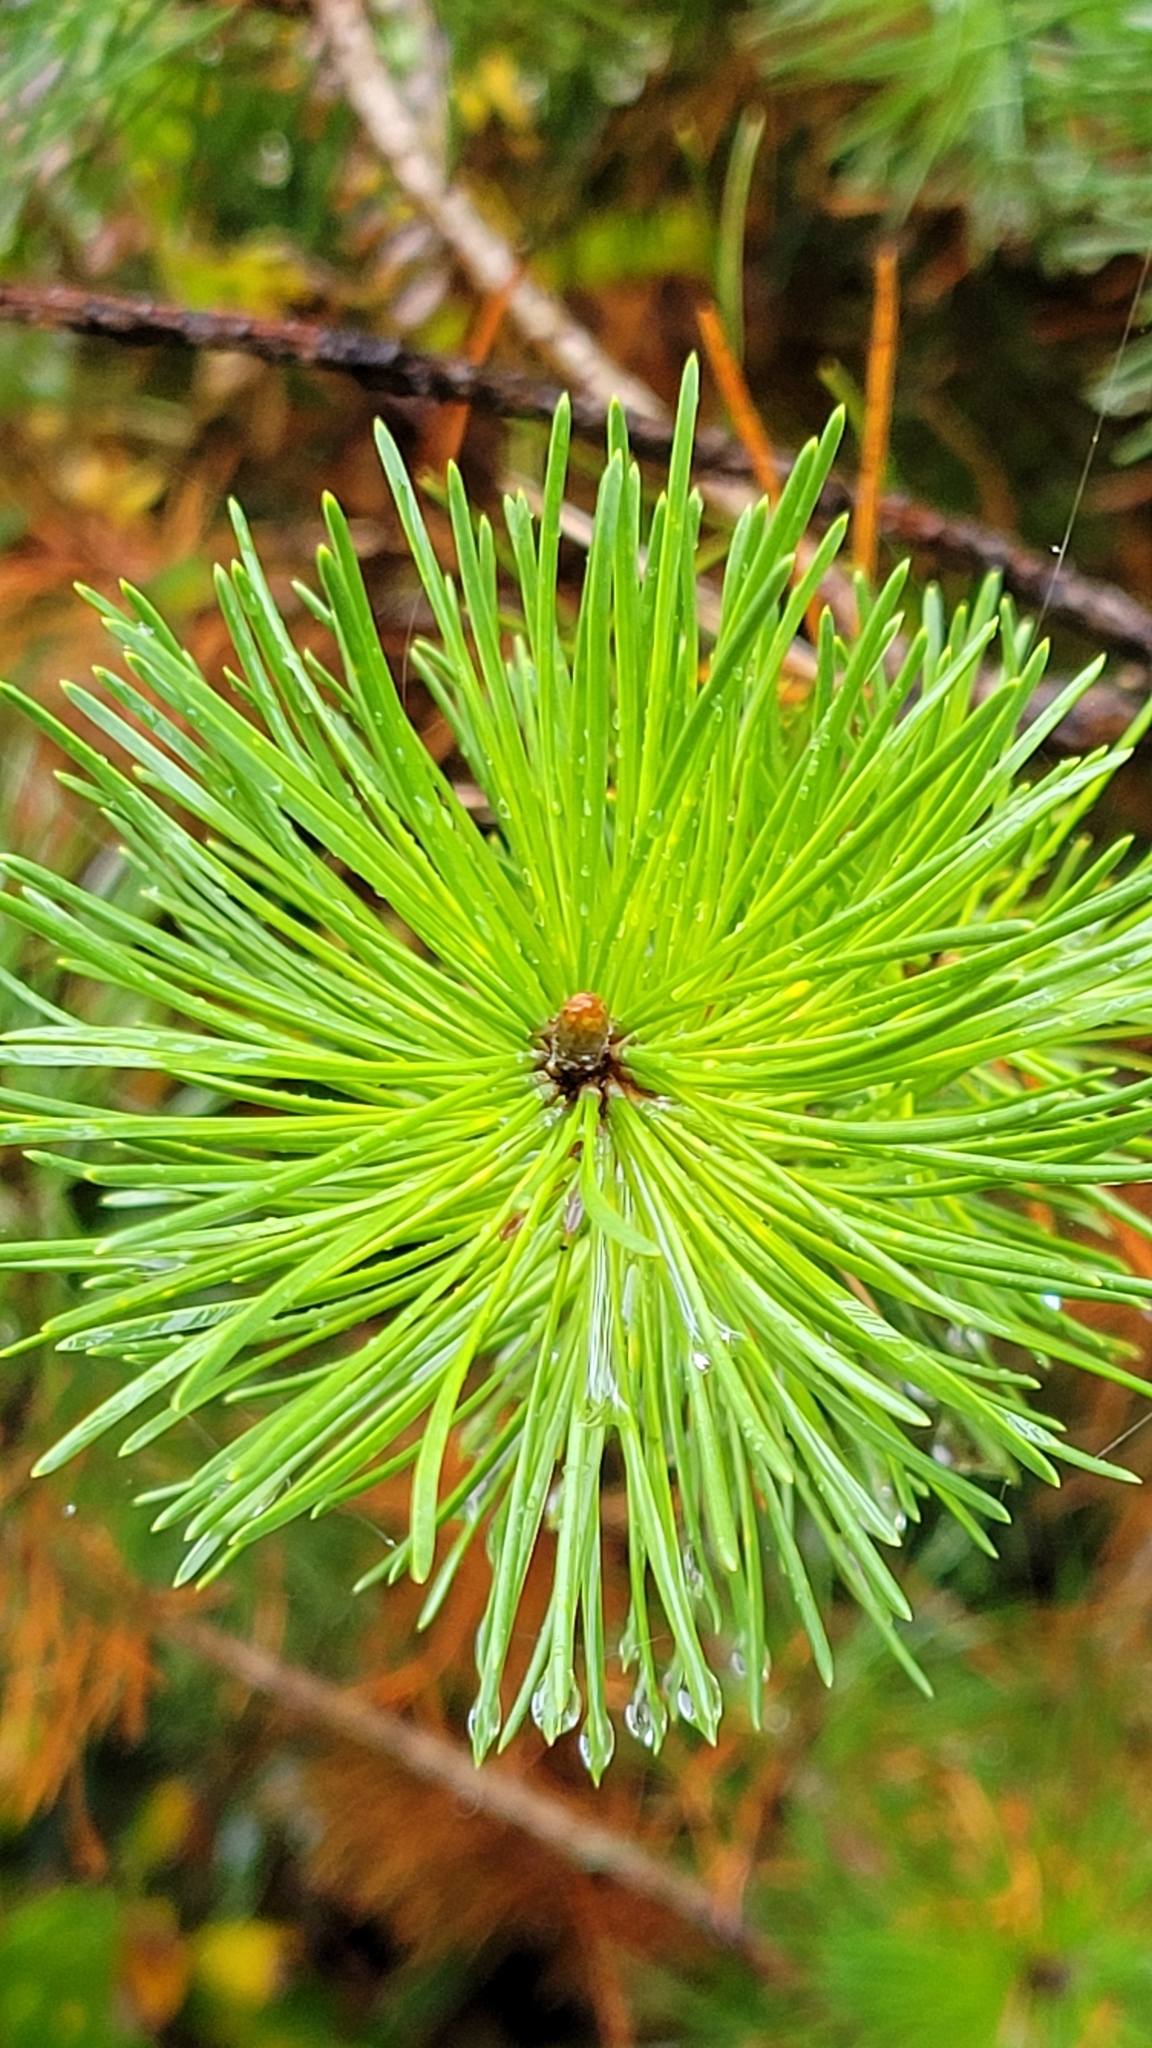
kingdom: Plantae
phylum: Tracheophyta
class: Pinopsida
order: Pinales
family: Pinaceae
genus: Pinus
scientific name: Pinus contorta
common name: Lodgepole pine
